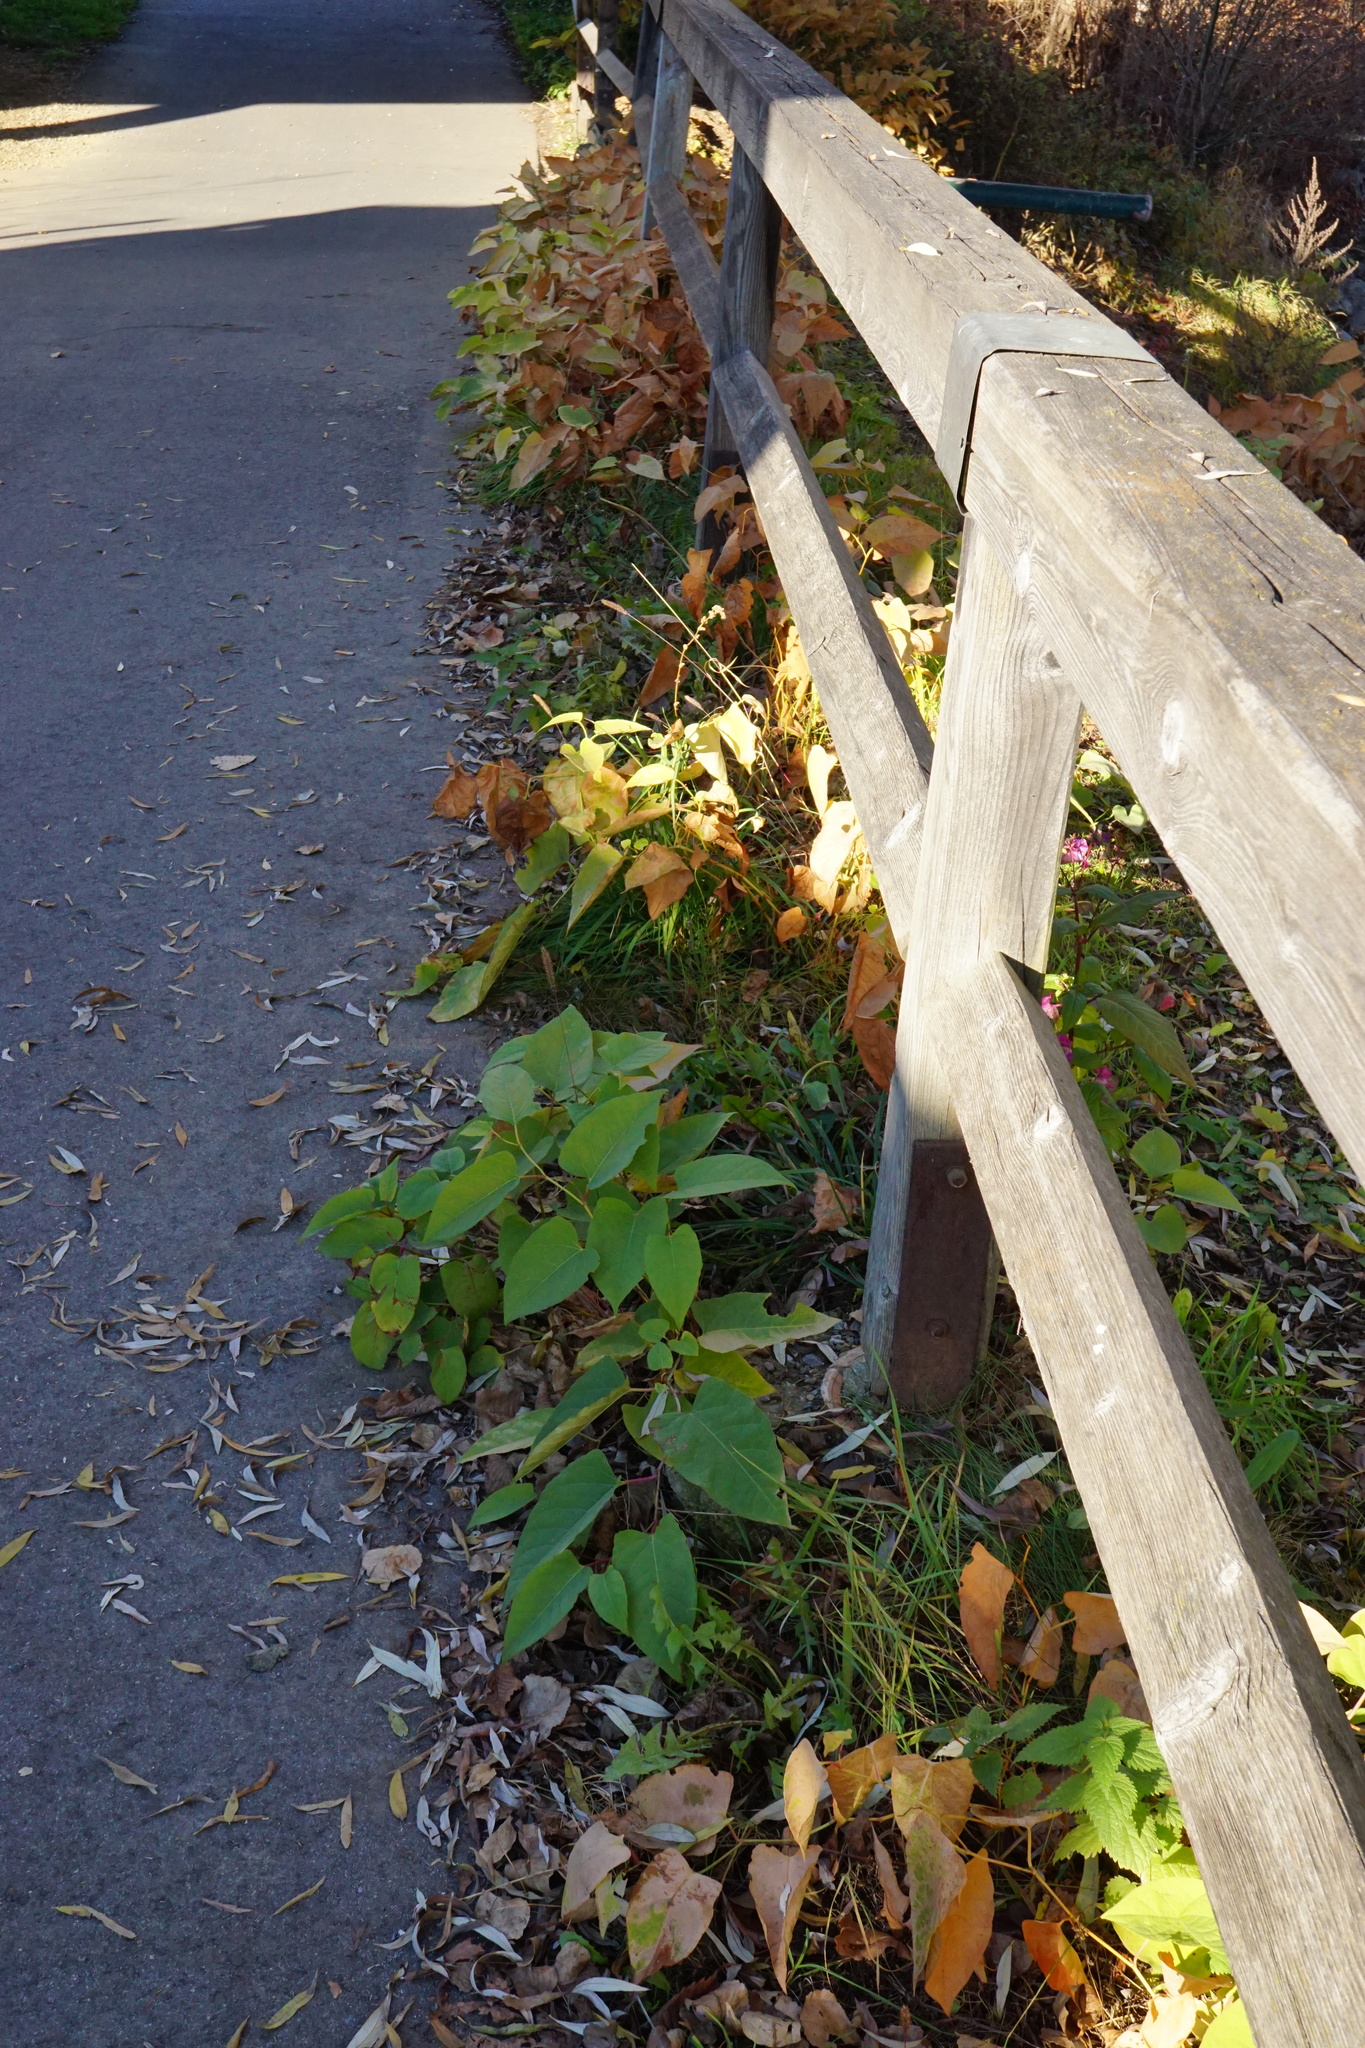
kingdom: Plantae
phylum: Tracheophyta
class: Magnoliopsida
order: Caryophyllales
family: Polygonaceae
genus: Reynoutria
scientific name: Reynoutria bohemica
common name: Bohemian knotweed
